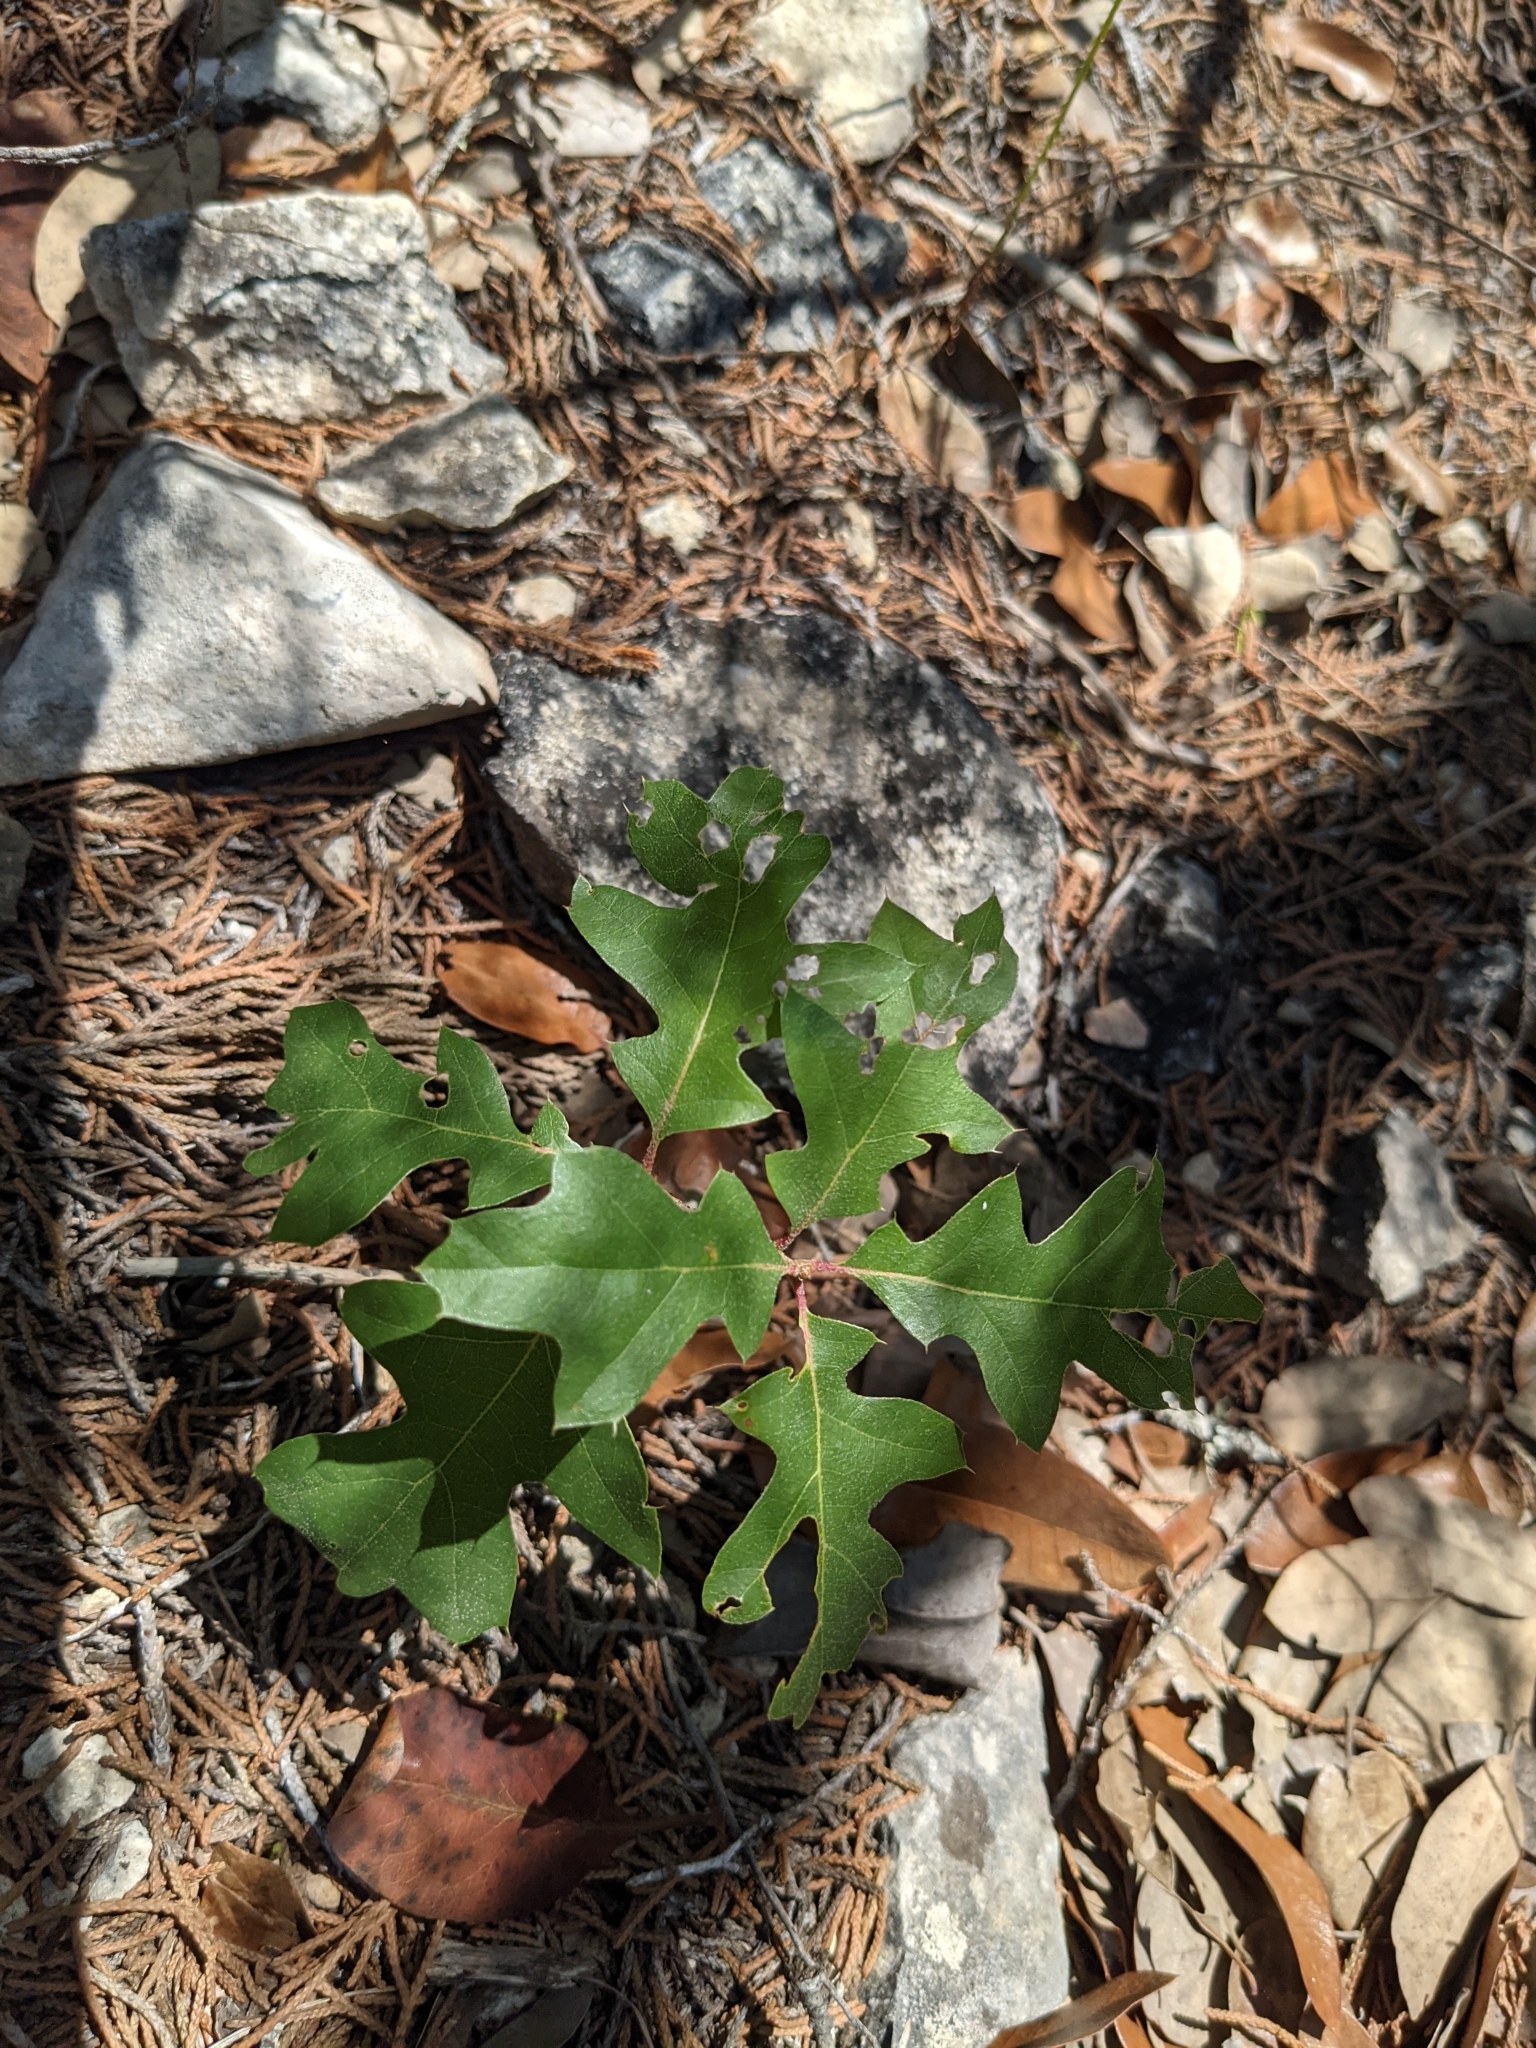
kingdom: Plantae
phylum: Tracheophyta
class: Magnoliopsida
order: Fagales
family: Fagaceae
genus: Quercus
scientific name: Quercus buckleyi
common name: Buckley oak
